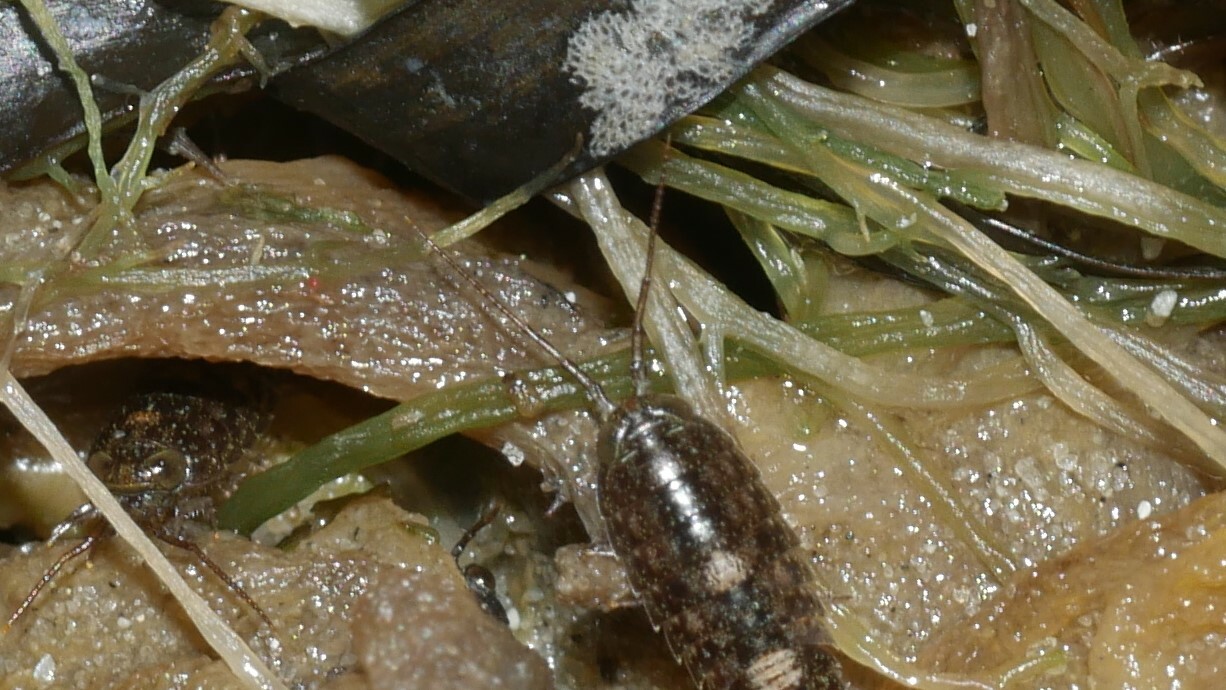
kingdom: Animalia
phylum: Arthropoda
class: Malacostraca
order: Isopoda
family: Ligiidae
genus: Ligia
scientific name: Ligia exotica
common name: Wharf roach
